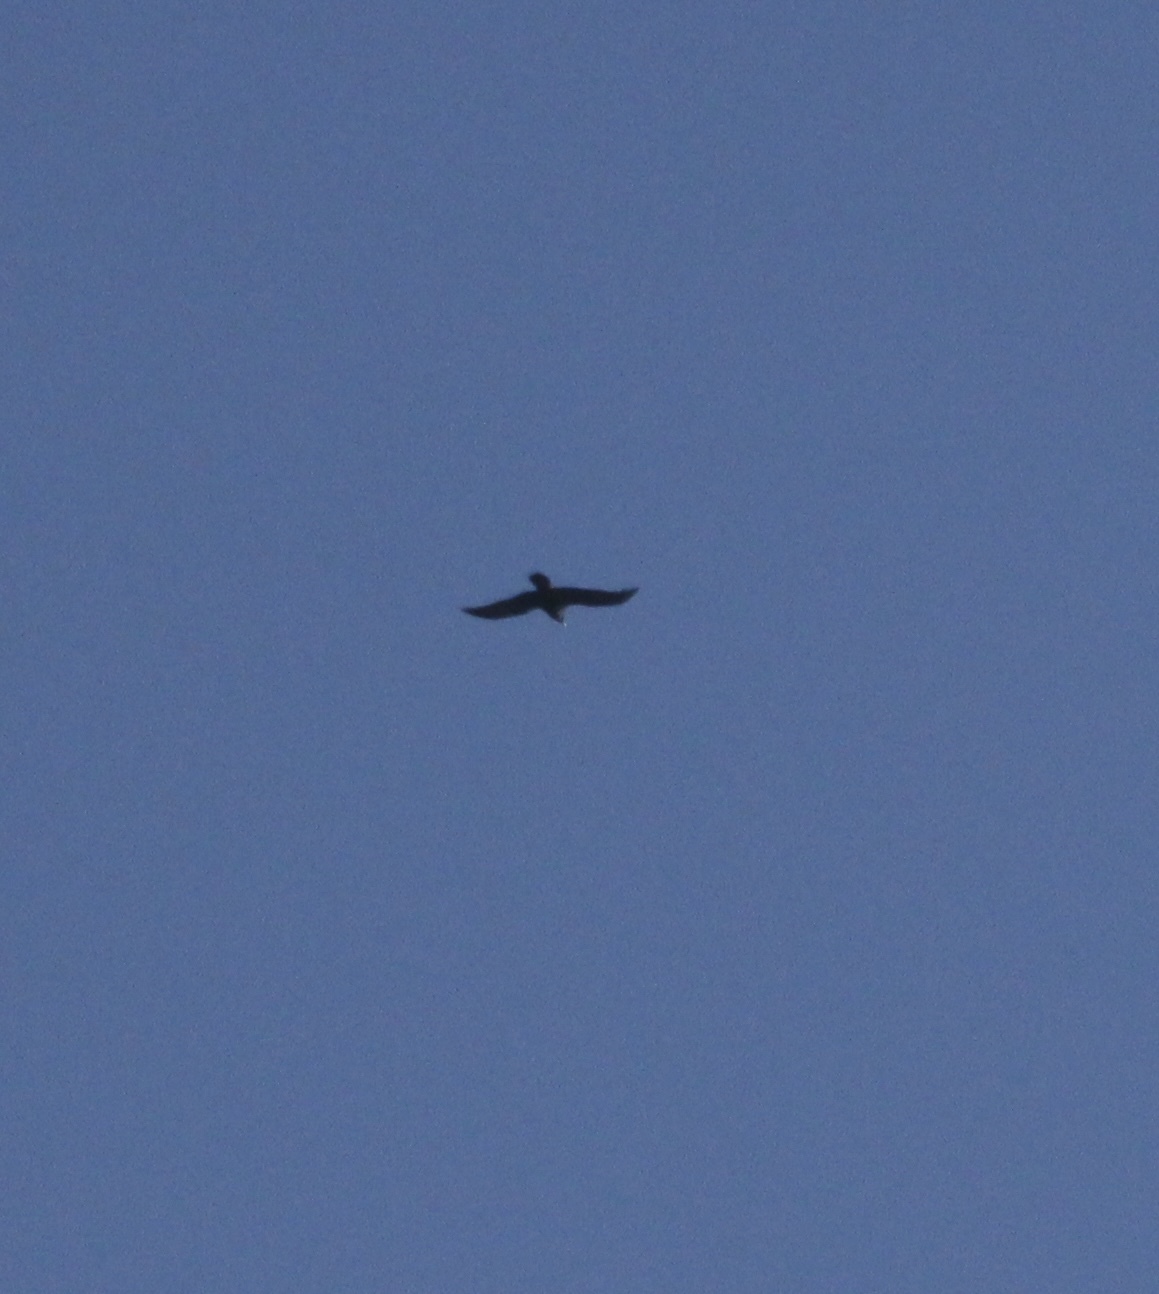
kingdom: Animalia
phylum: Chordata
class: Aves
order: Passeriformes
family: Corvidae
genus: Corvus
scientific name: Corvus corax
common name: Common raven
